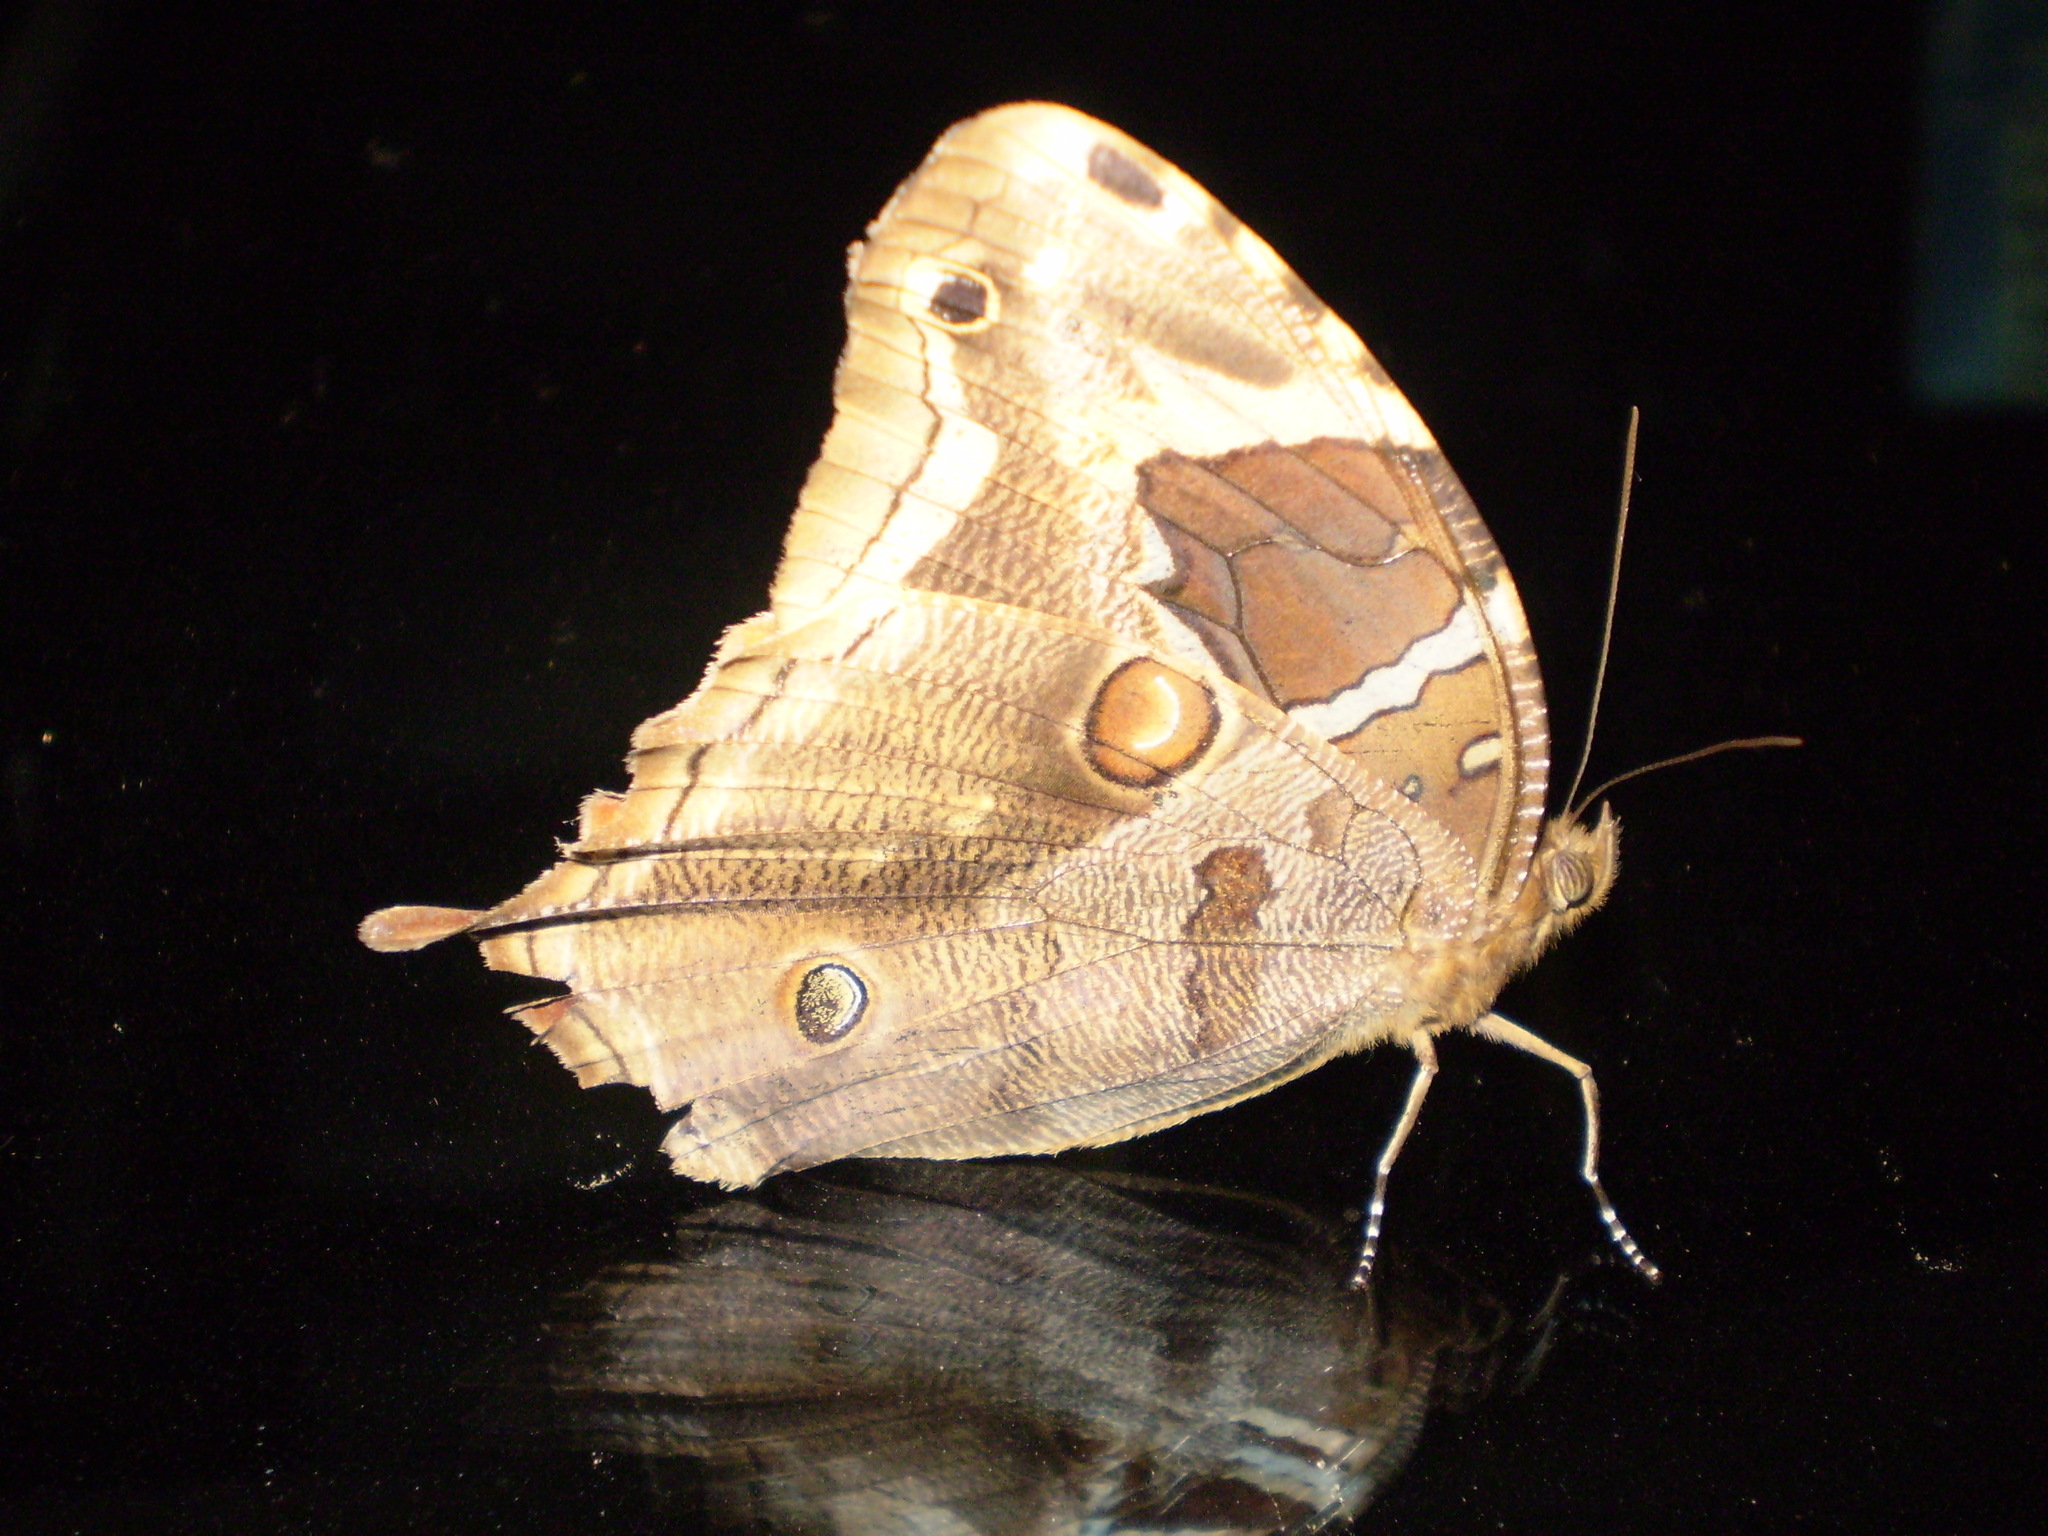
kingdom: Animalia
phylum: Arthropoda
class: Insecta
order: Lepidoptera
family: Nymphalidae
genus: Opoptera
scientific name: Opoptera aorsa
